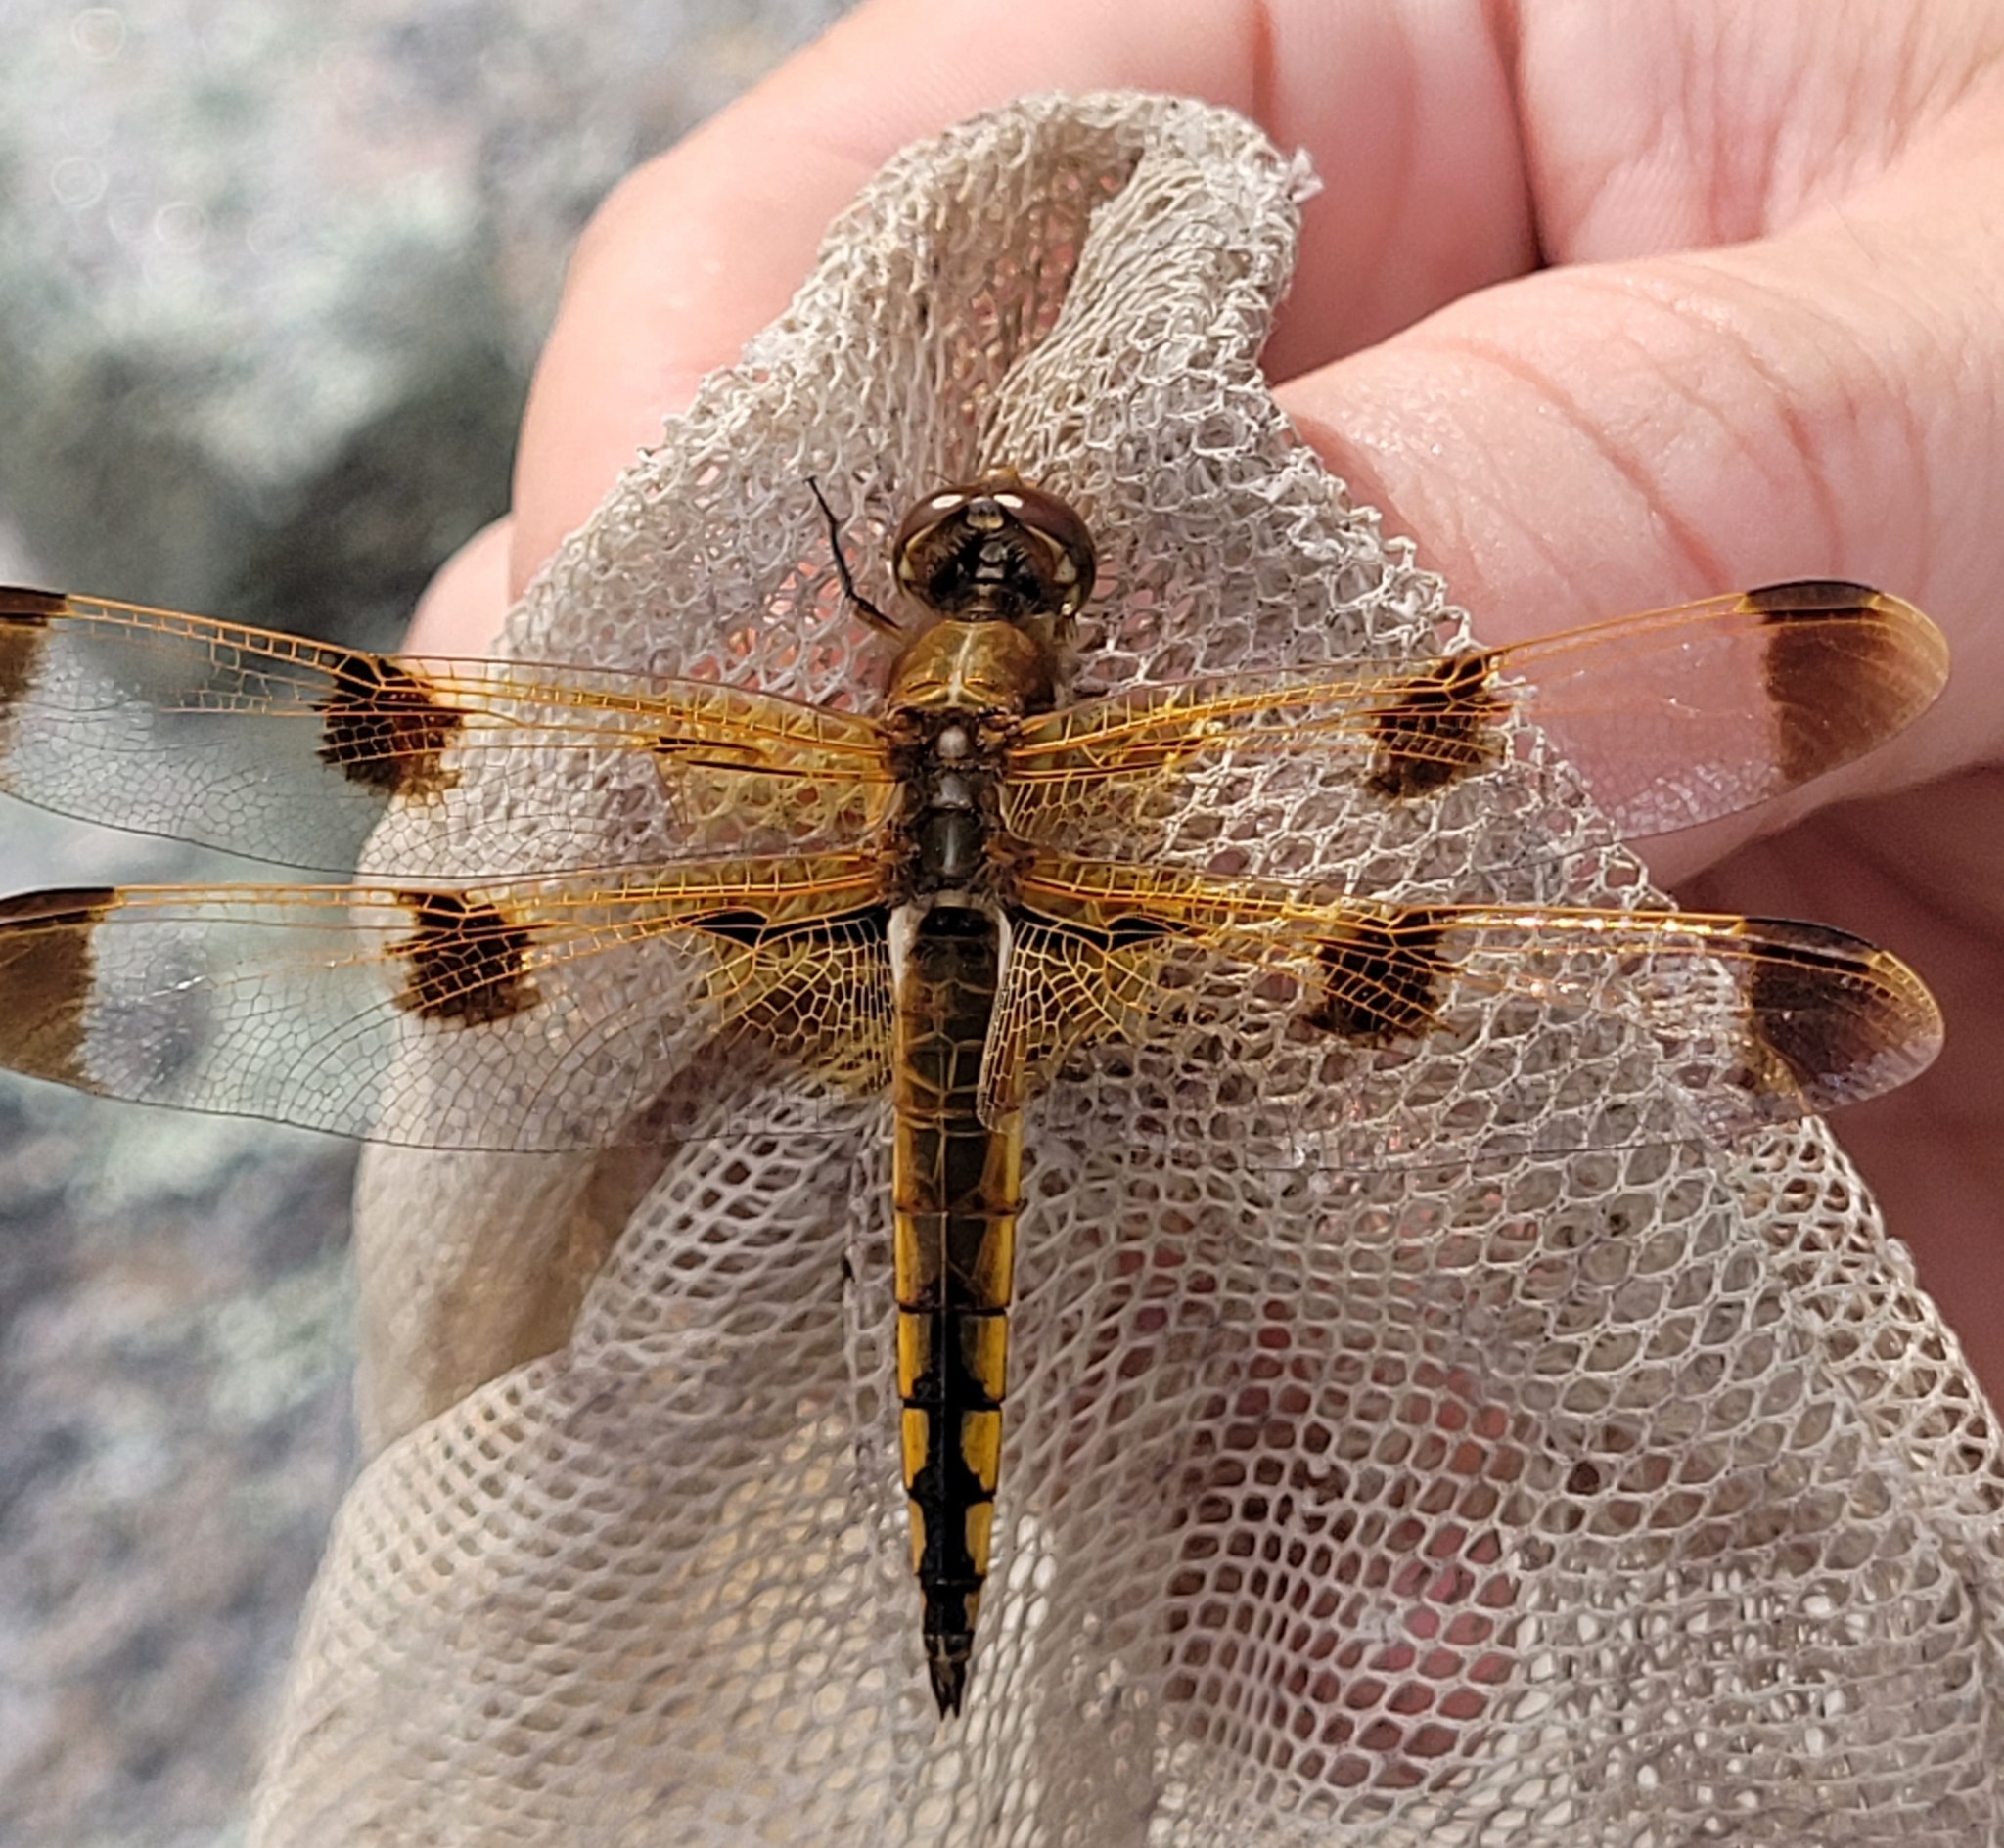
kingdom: Animalia
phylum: Arthropoda
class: Insecta
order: Odonata
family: Libellulidae
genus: Libellula
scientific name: Libellula semifasciata
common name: Painted skimmer
